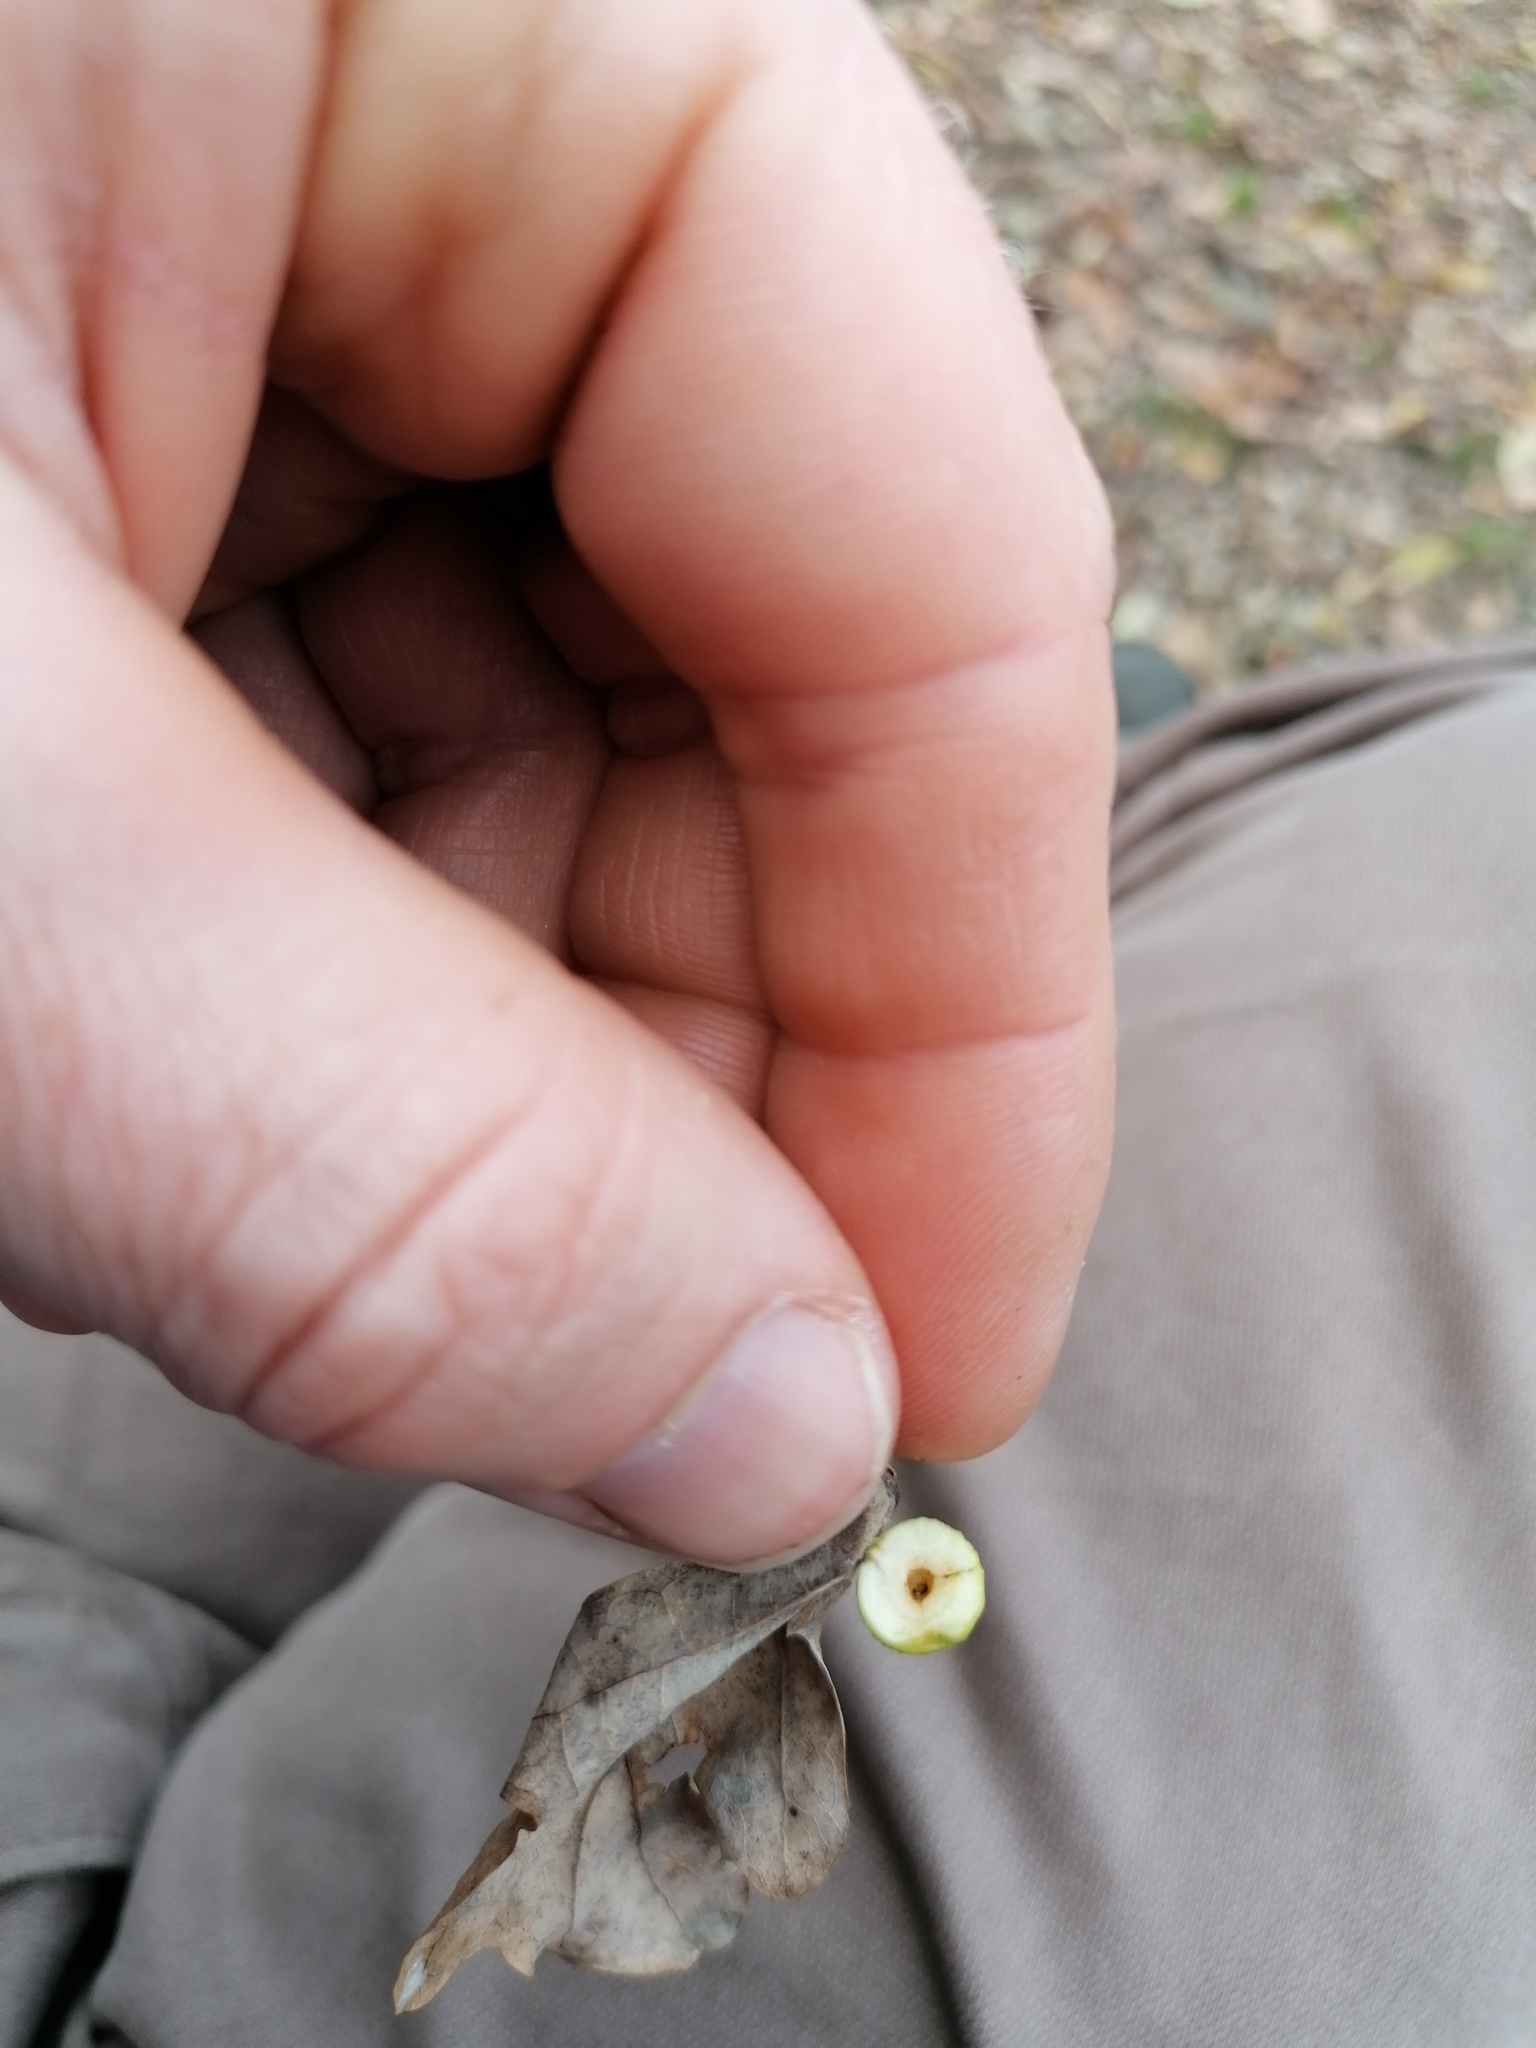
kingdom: Animalia
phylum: Arthropoda
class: Insecta
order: Hymenoptera
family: Cynipidae
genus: Cynips
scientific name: Cynips quercusfolii
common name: Cherry gall
